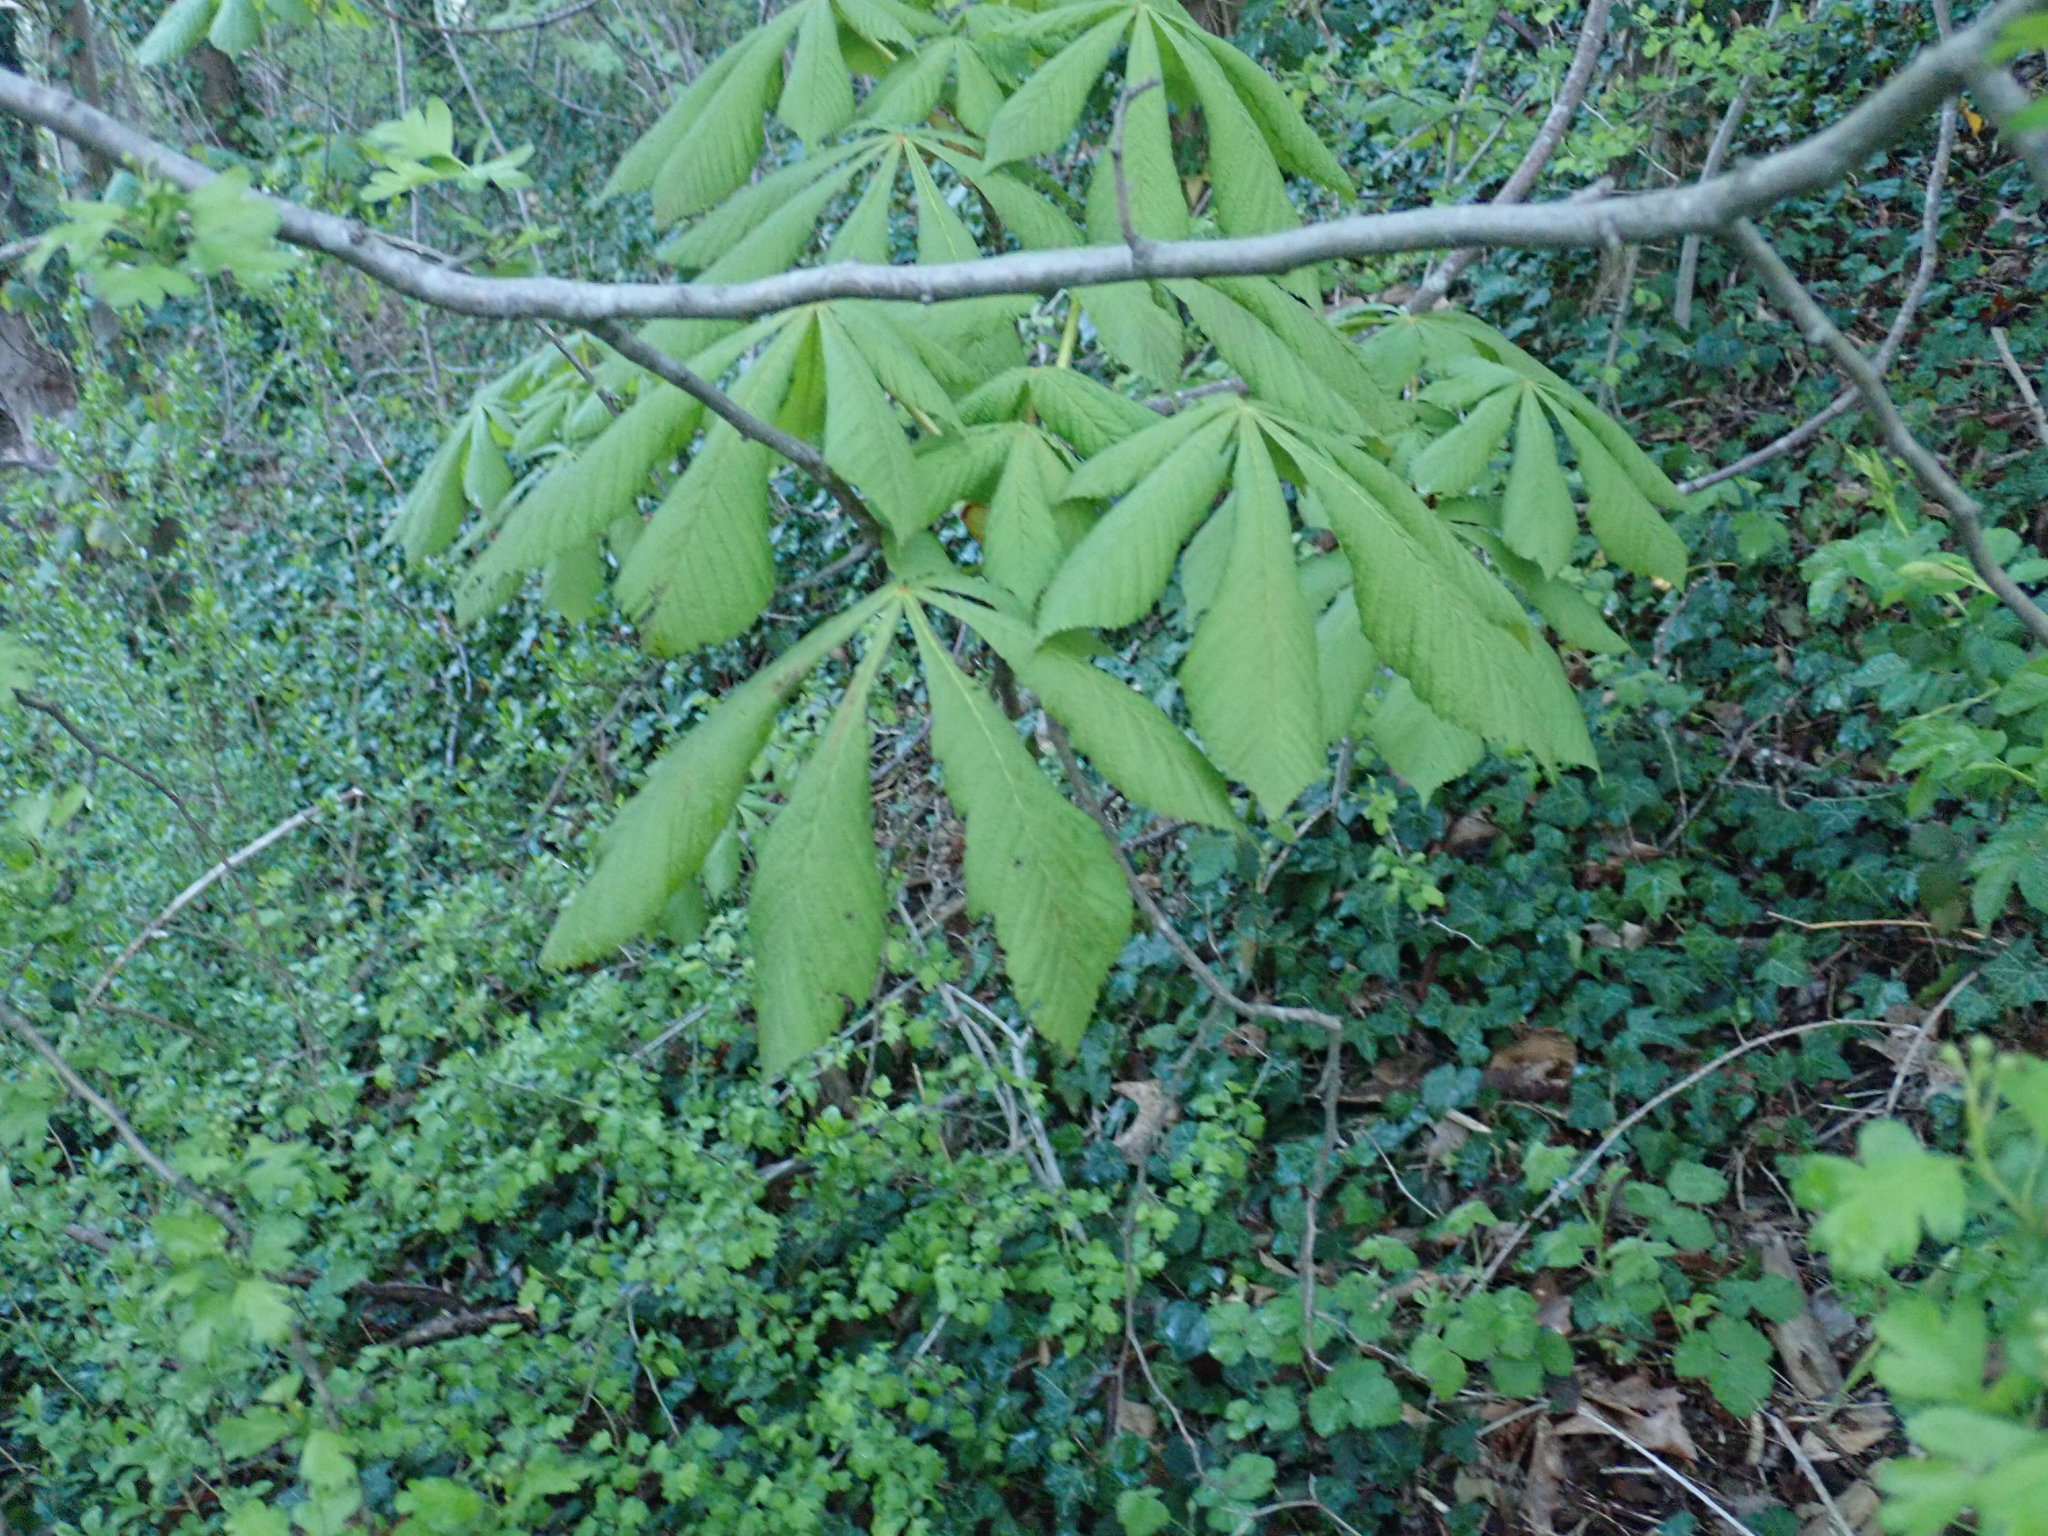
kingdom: Plantae
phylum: Tracheophyta
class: Magnoliopsida
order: Sapindales
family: Sapindaceae
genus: Aesculus
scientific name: Aesculus hippocastanum
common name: Horse-chestnut
